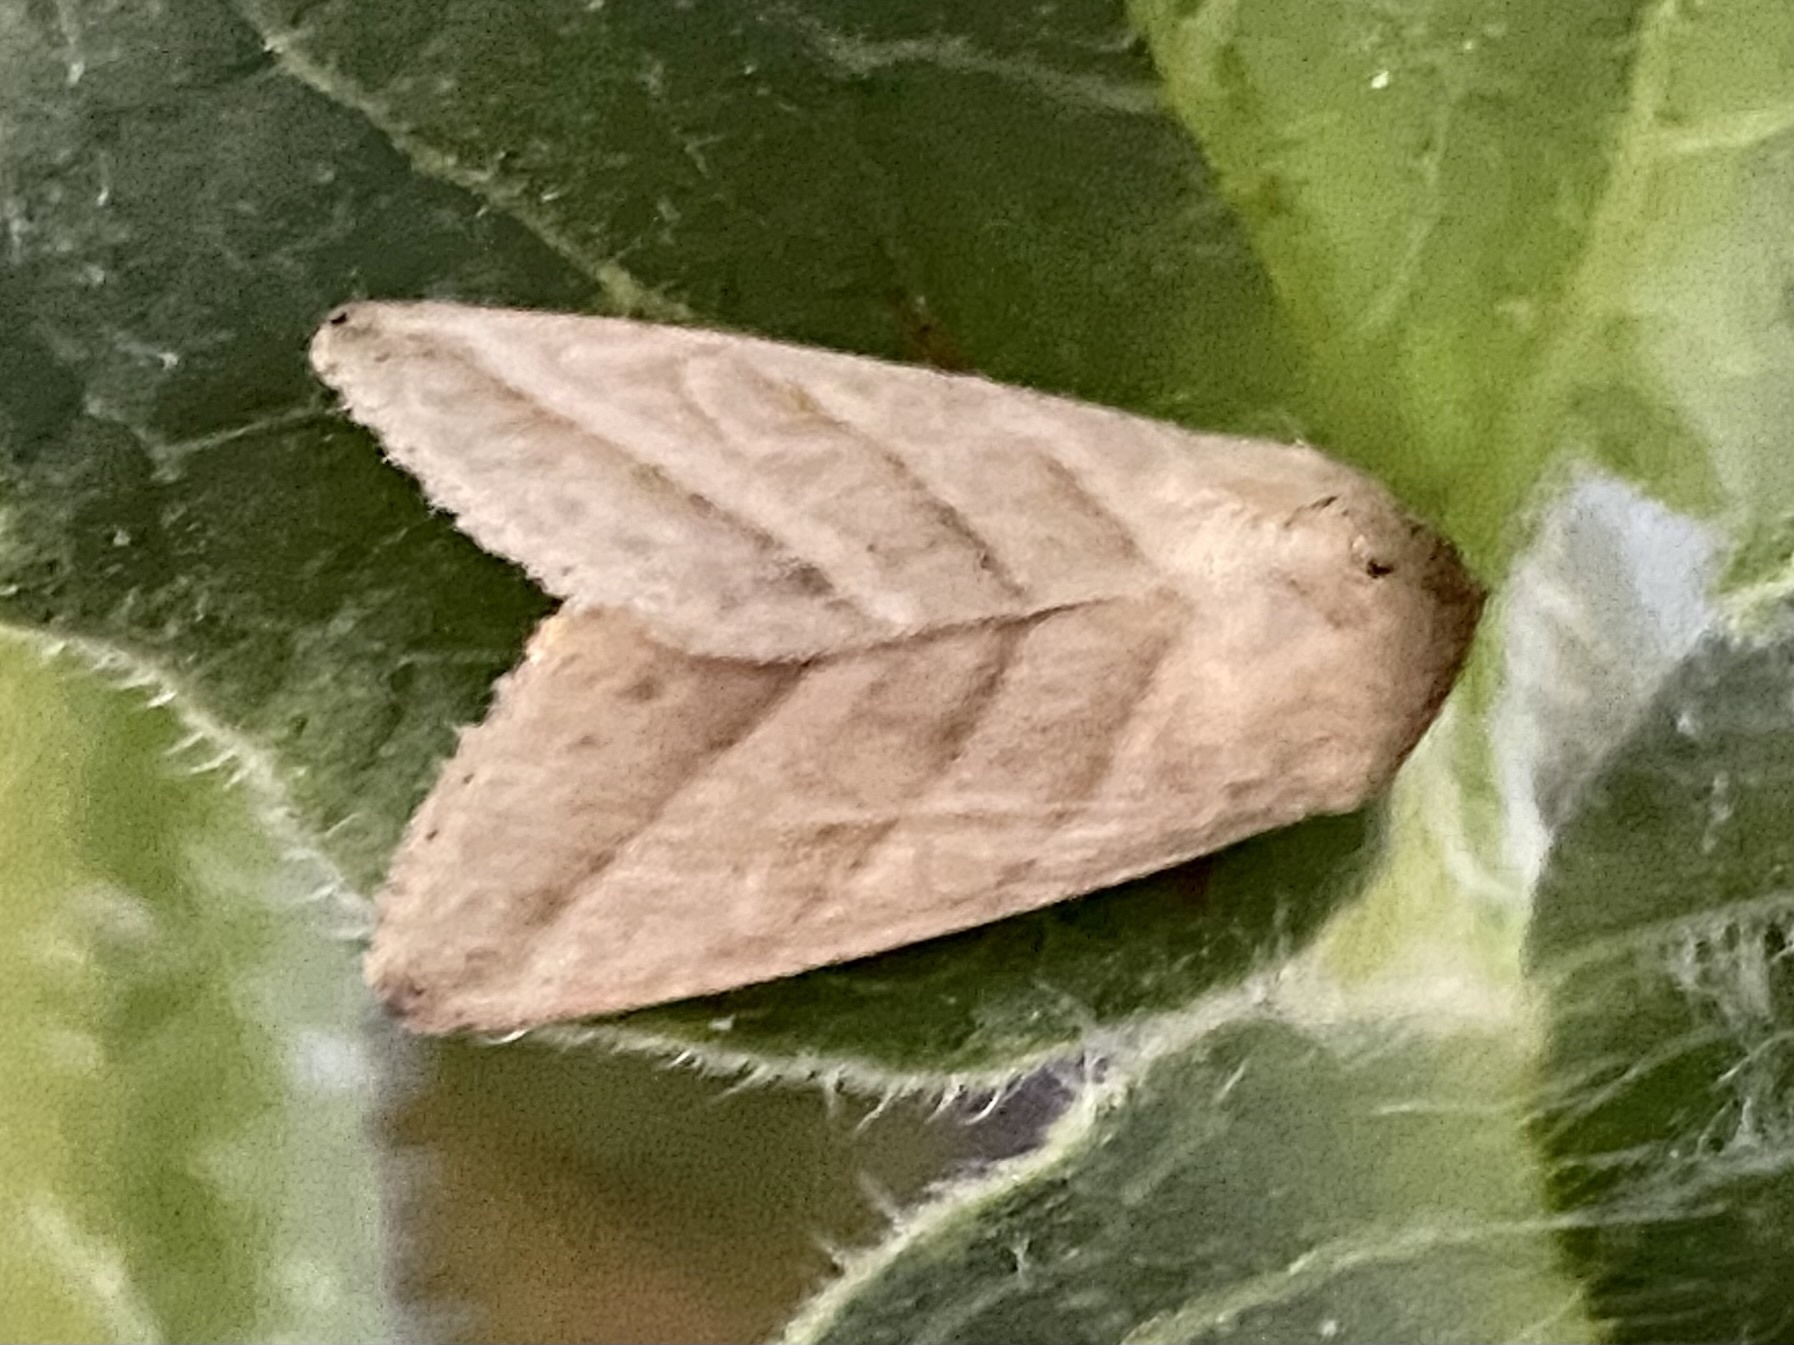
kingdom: Animalia
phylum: Arthropoda
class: Insecta
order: Lepidoptera
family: Noctuidae
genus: Chloridea
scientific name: Chloridea virescens
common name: Tobacco budworm
